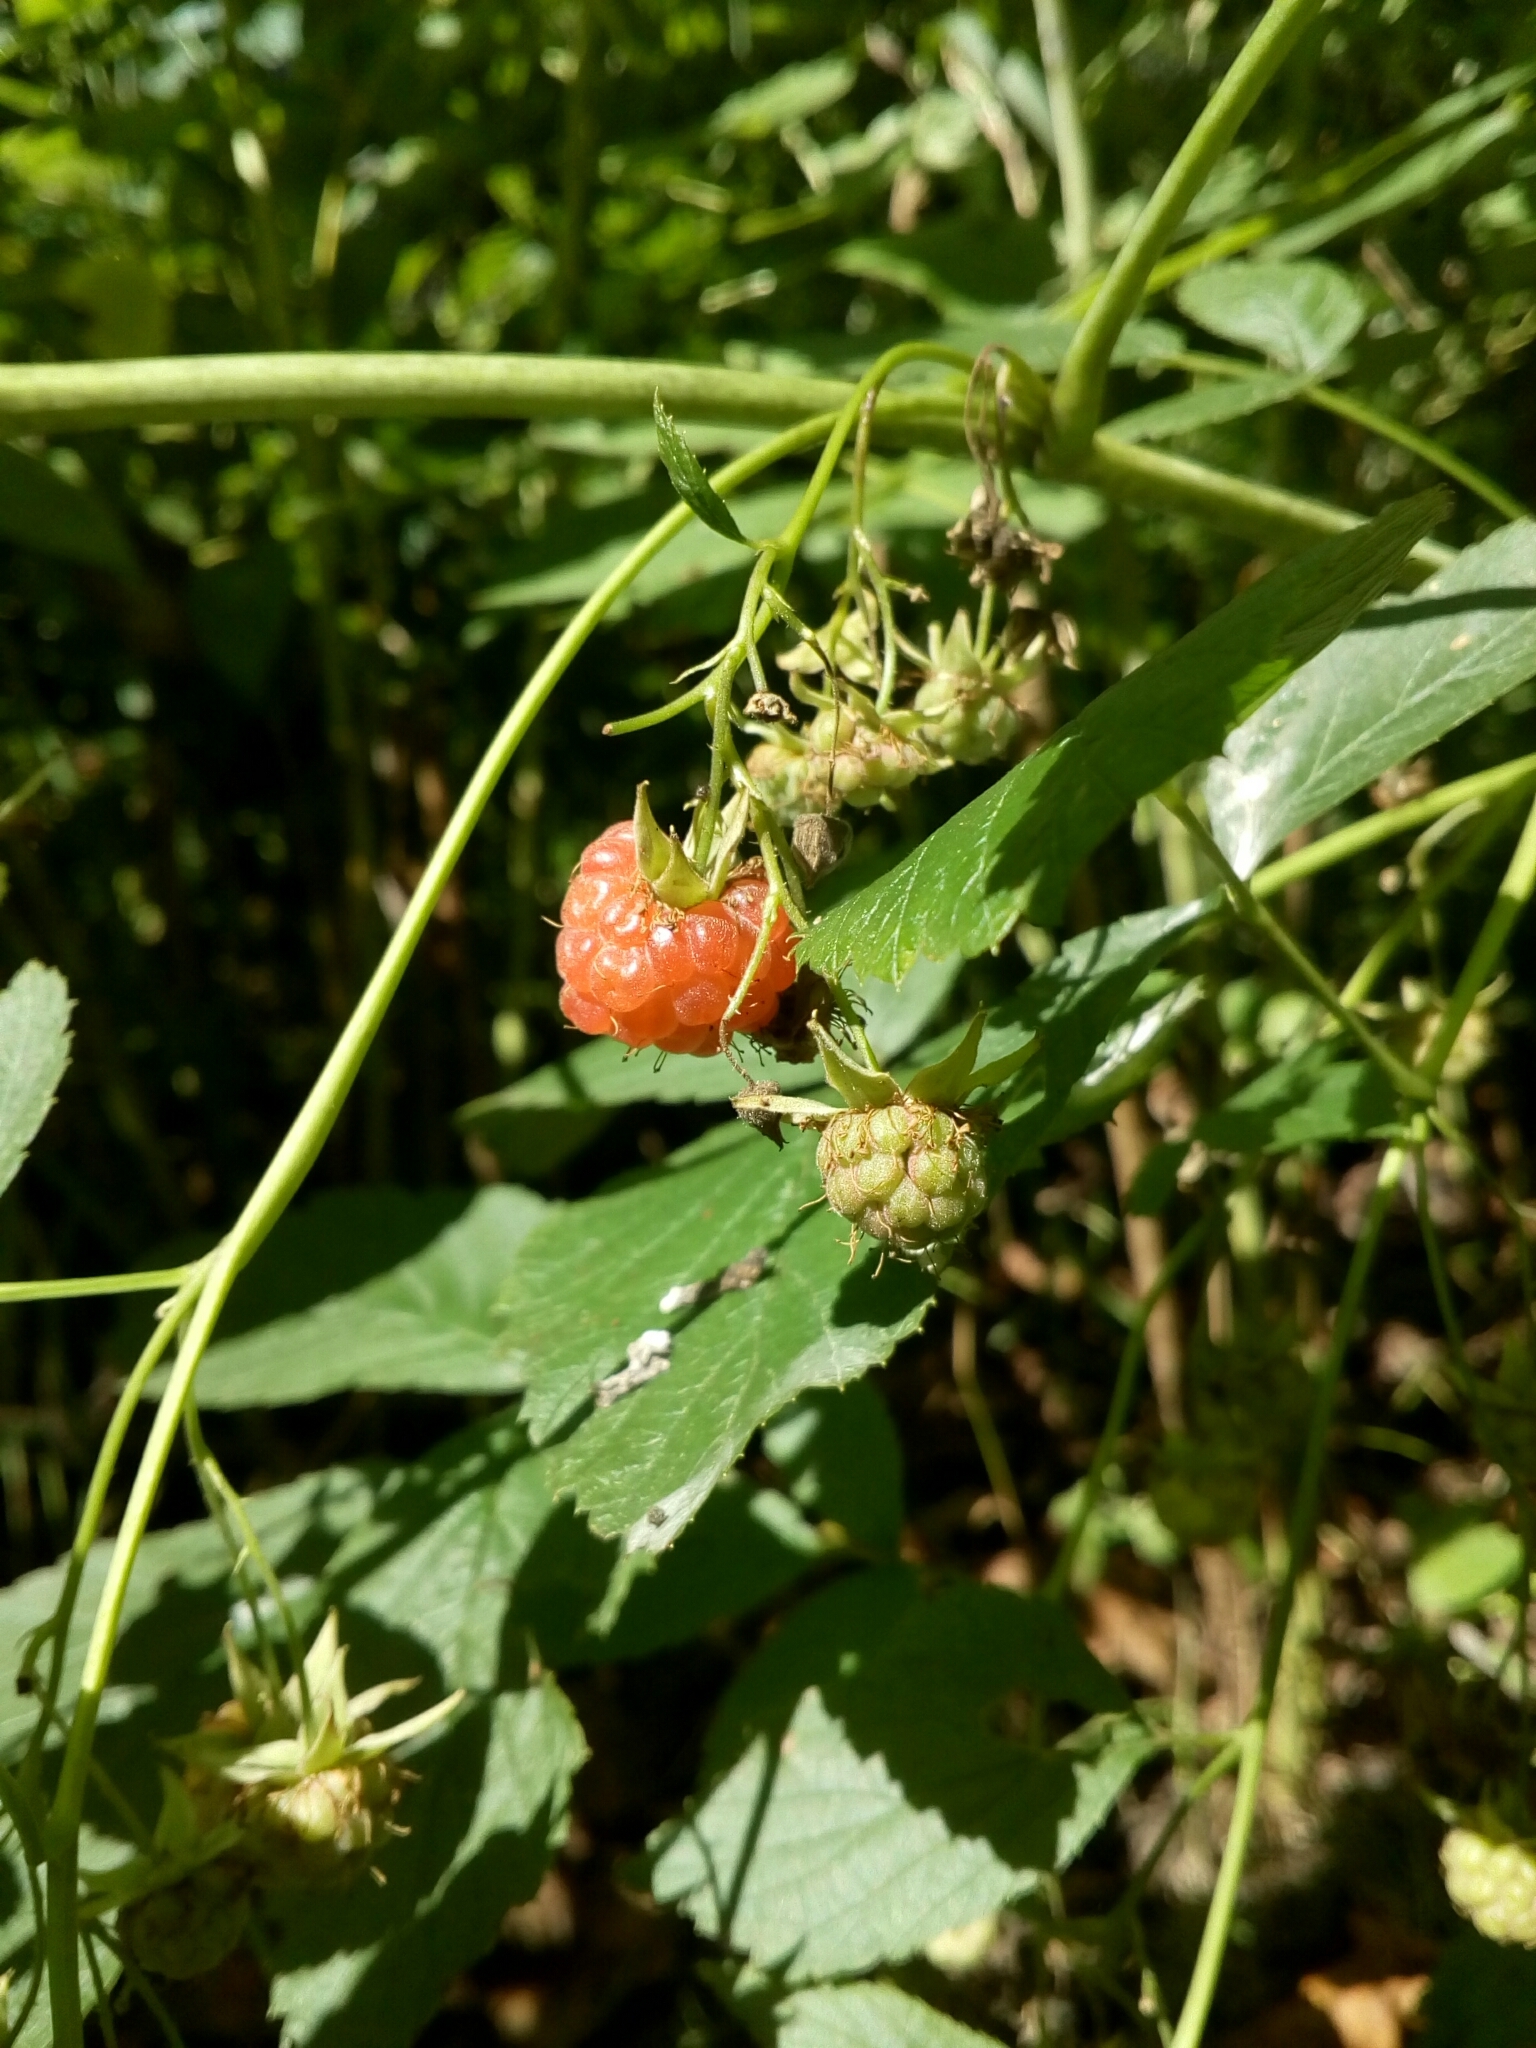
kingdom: Plantae
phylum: Tracheophyta
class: Magnoliopsida
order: Rosales
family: Rosaceae
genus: Rubus
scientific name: Rubus idaeus
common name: Raspberry
